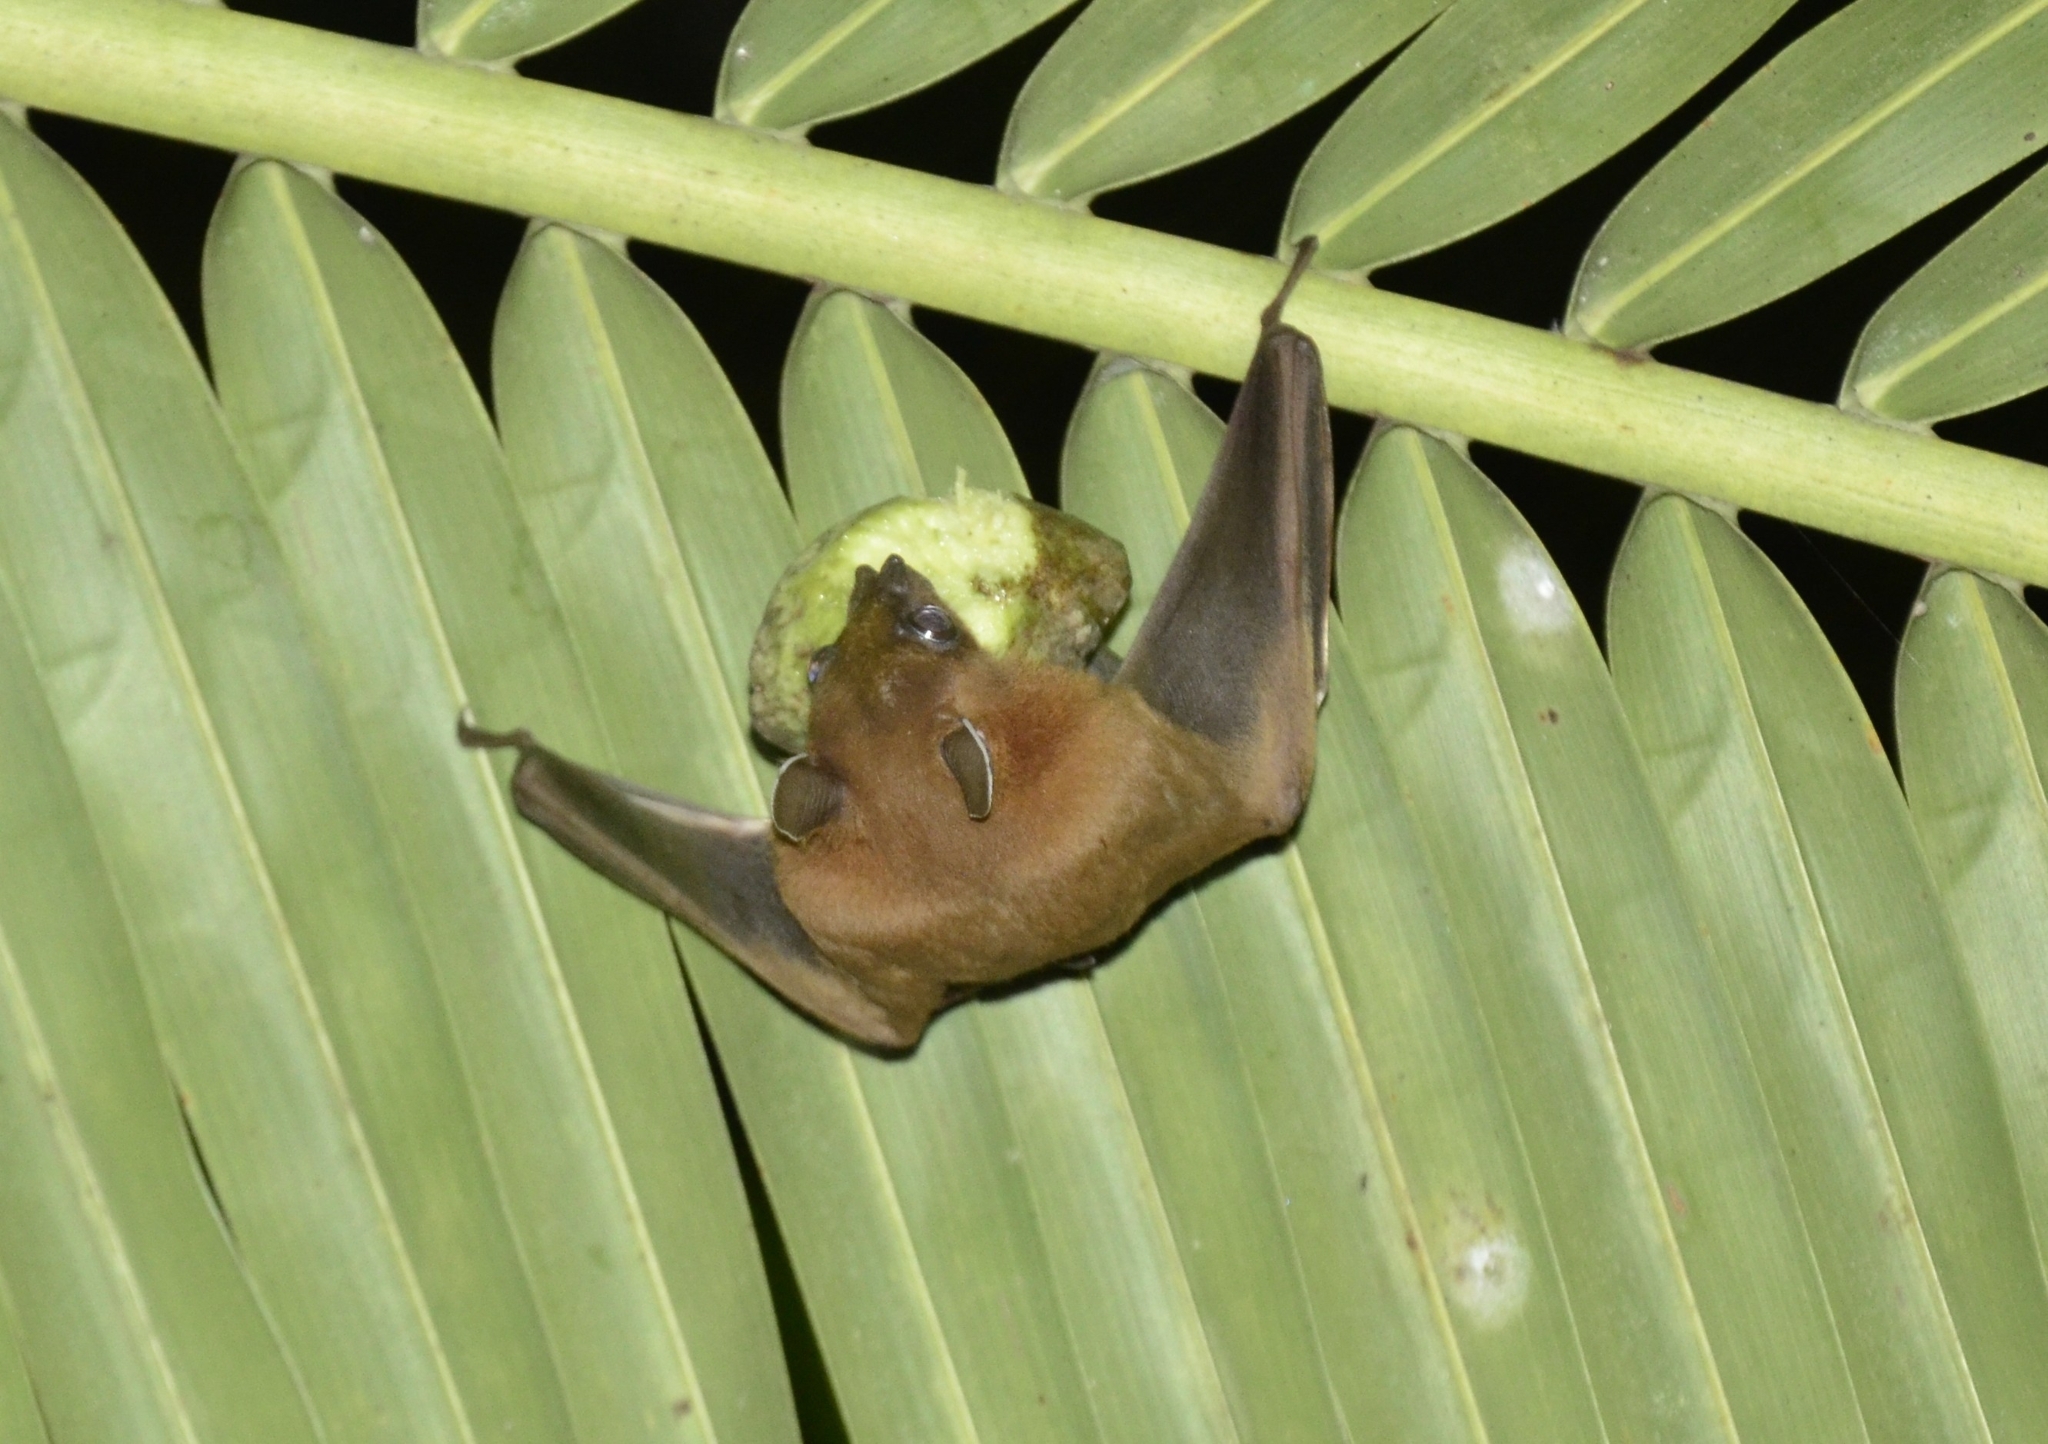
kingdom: Animalia
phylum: Chordata
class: Mammalia
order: Chiroptera
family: Pteropodidae
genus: Cynopterus
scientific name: Cynopterus sphinx
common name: Greater short-nosed fruit bat
